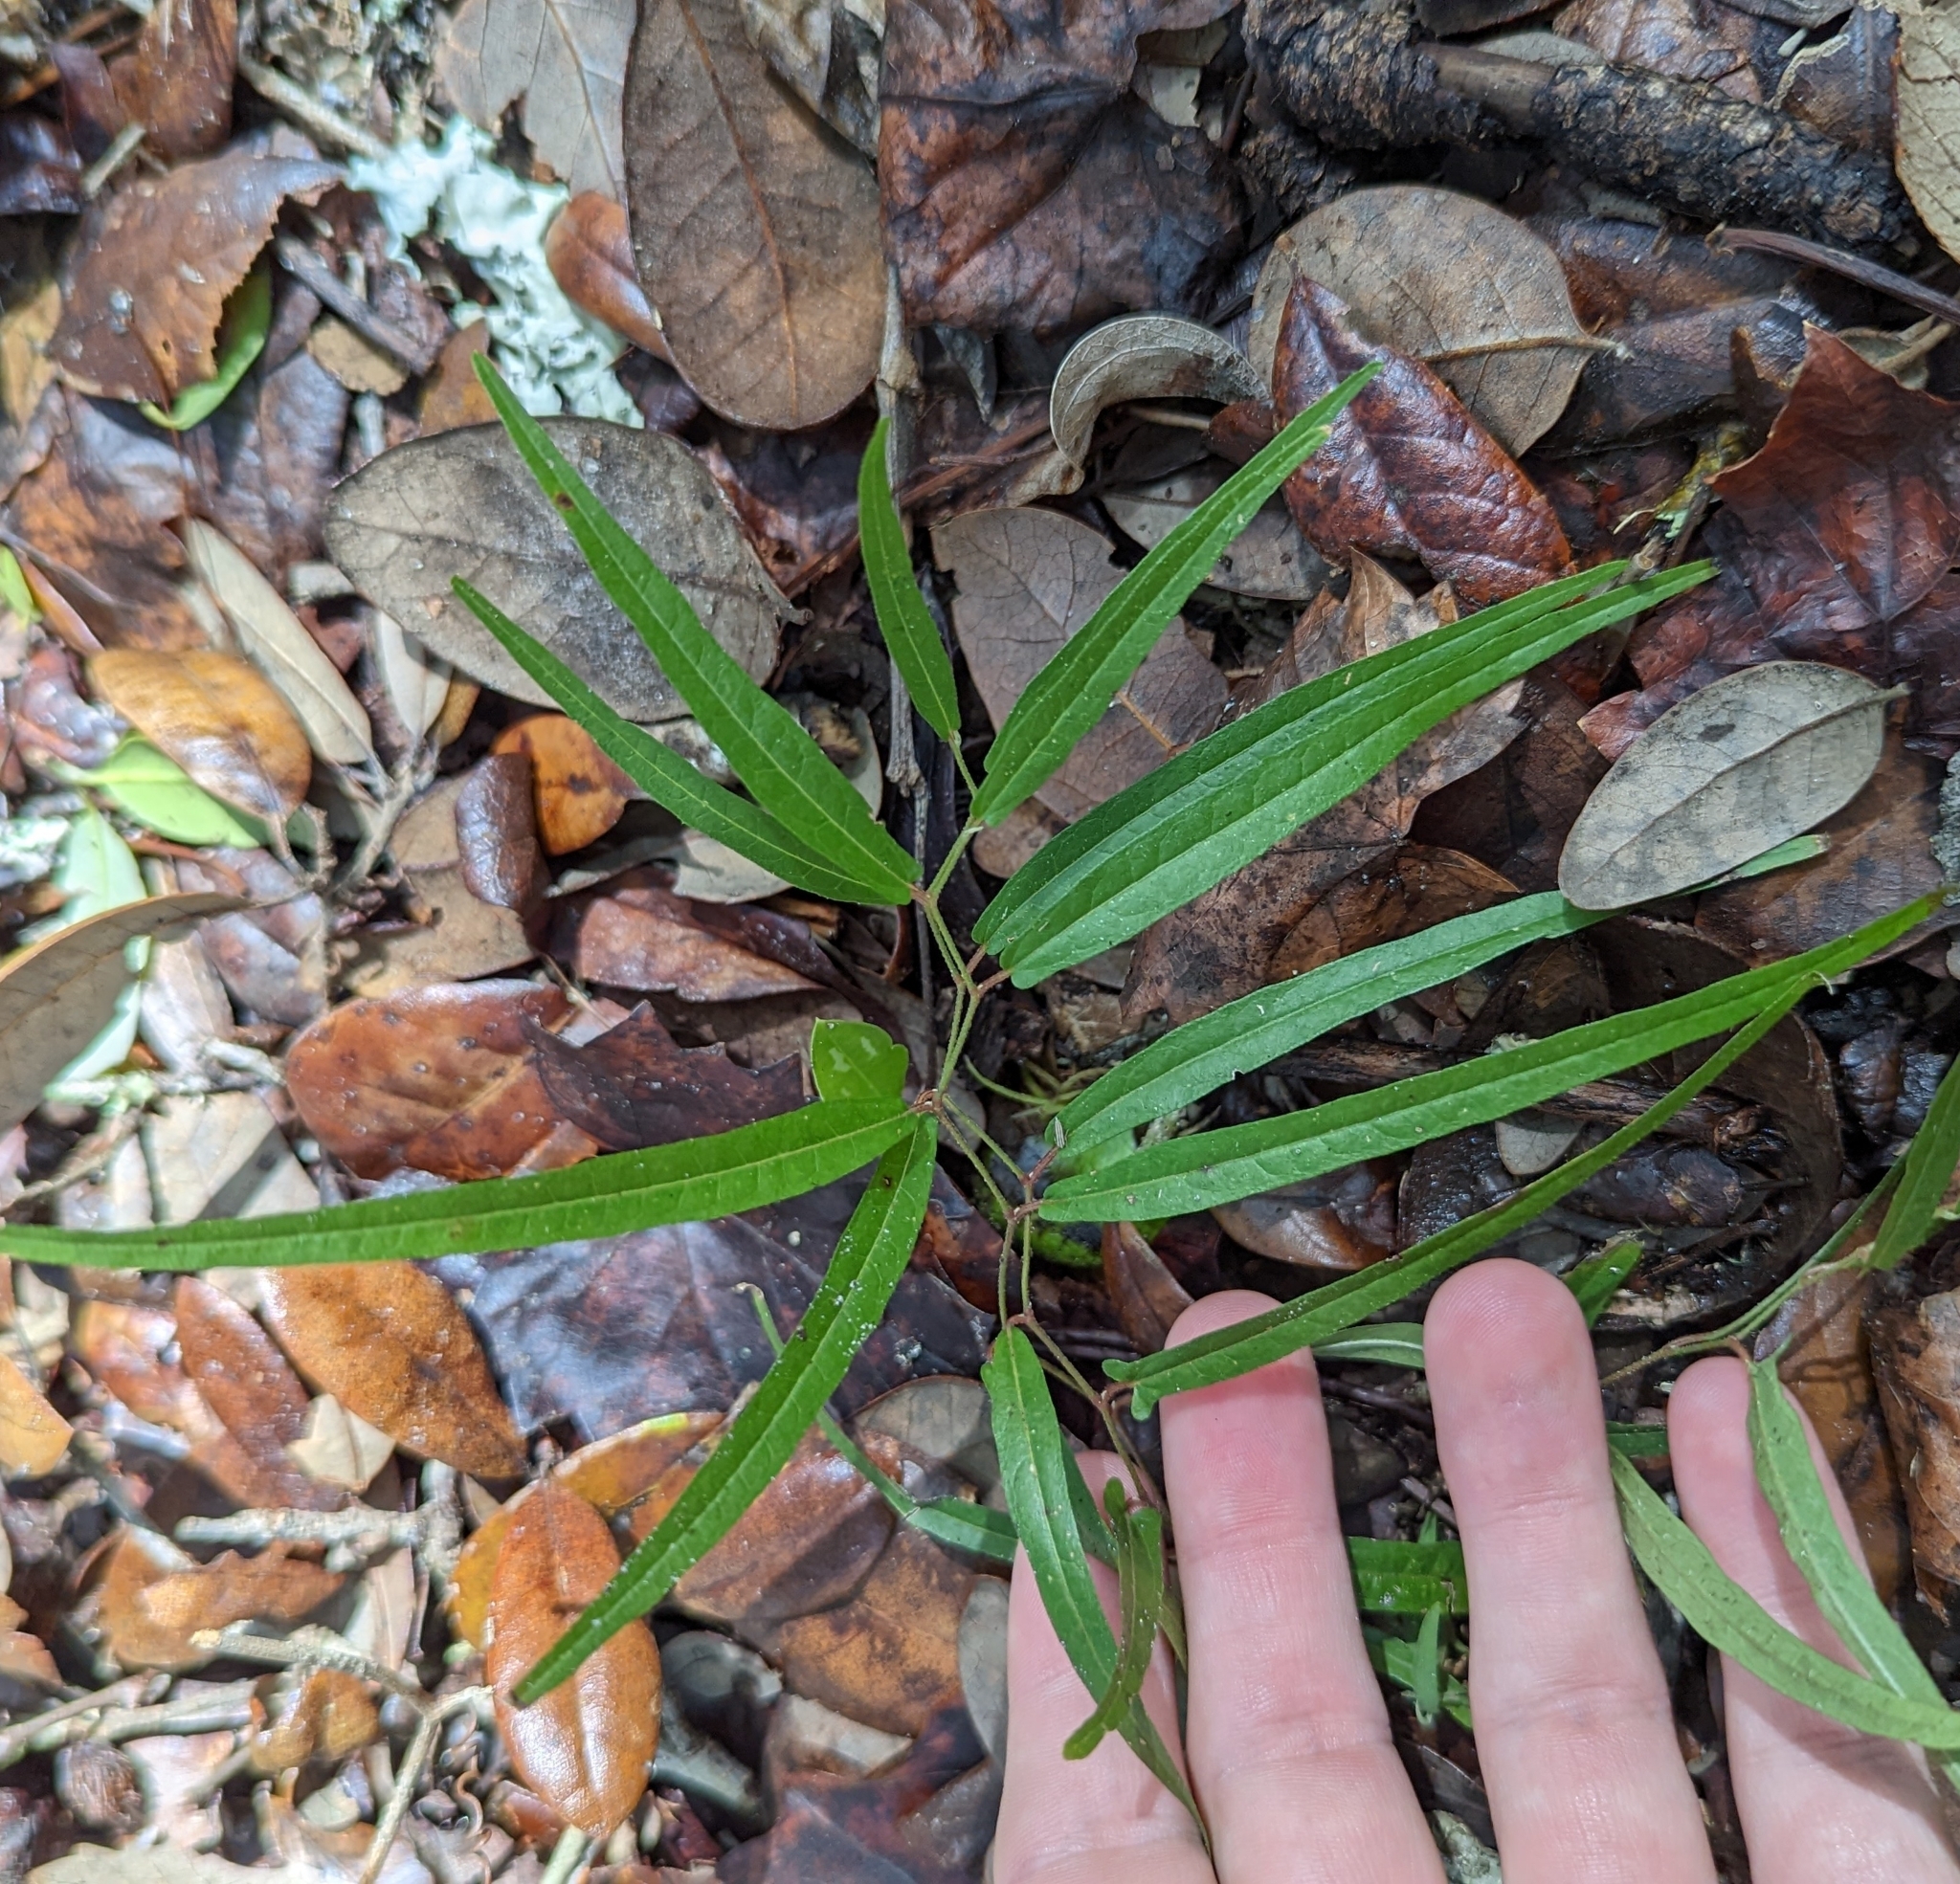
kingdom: Plantae
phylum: Tracheophyta
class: Magnoliopsida
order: Piperales
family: Aristolochiaceae
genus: Endodeca
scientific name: Endodeca serpentaria
